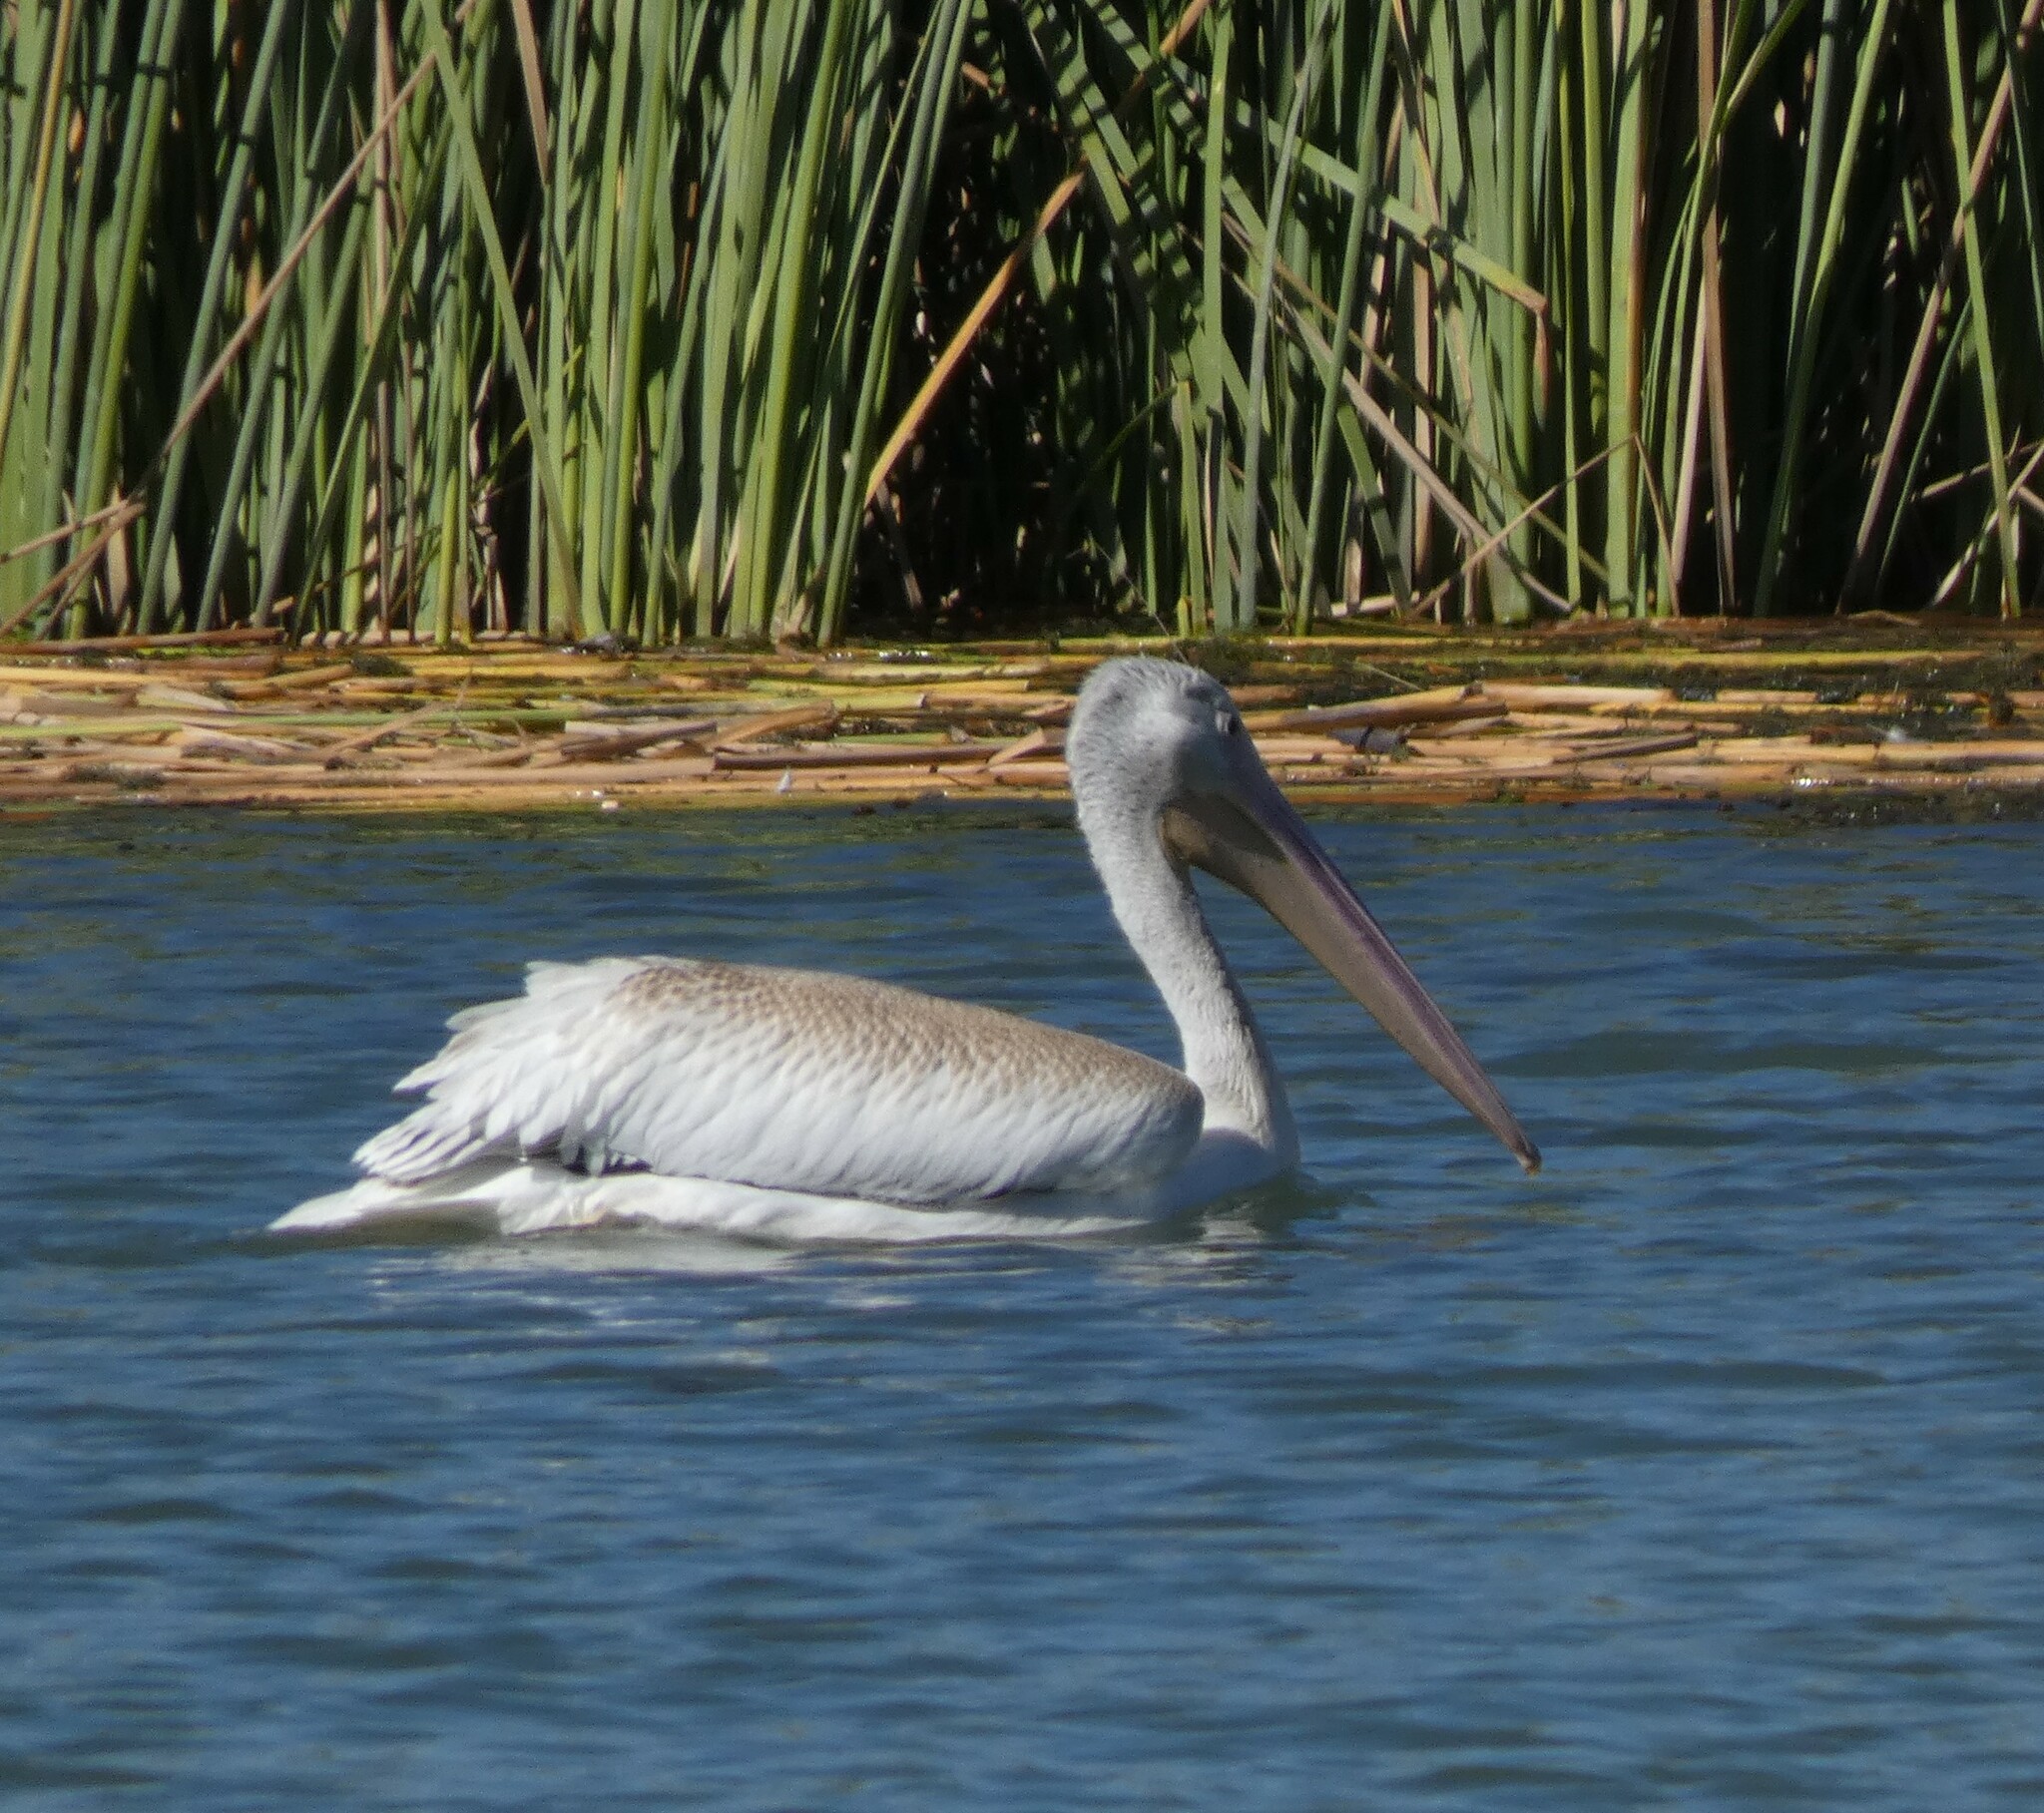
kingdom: Animalia
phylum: Chordata
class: Aves
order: Pelecaniformes
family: Pelecanidae
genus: Pelecanus
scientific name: Pelecanus erythrorhynchos
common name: American white pelican
